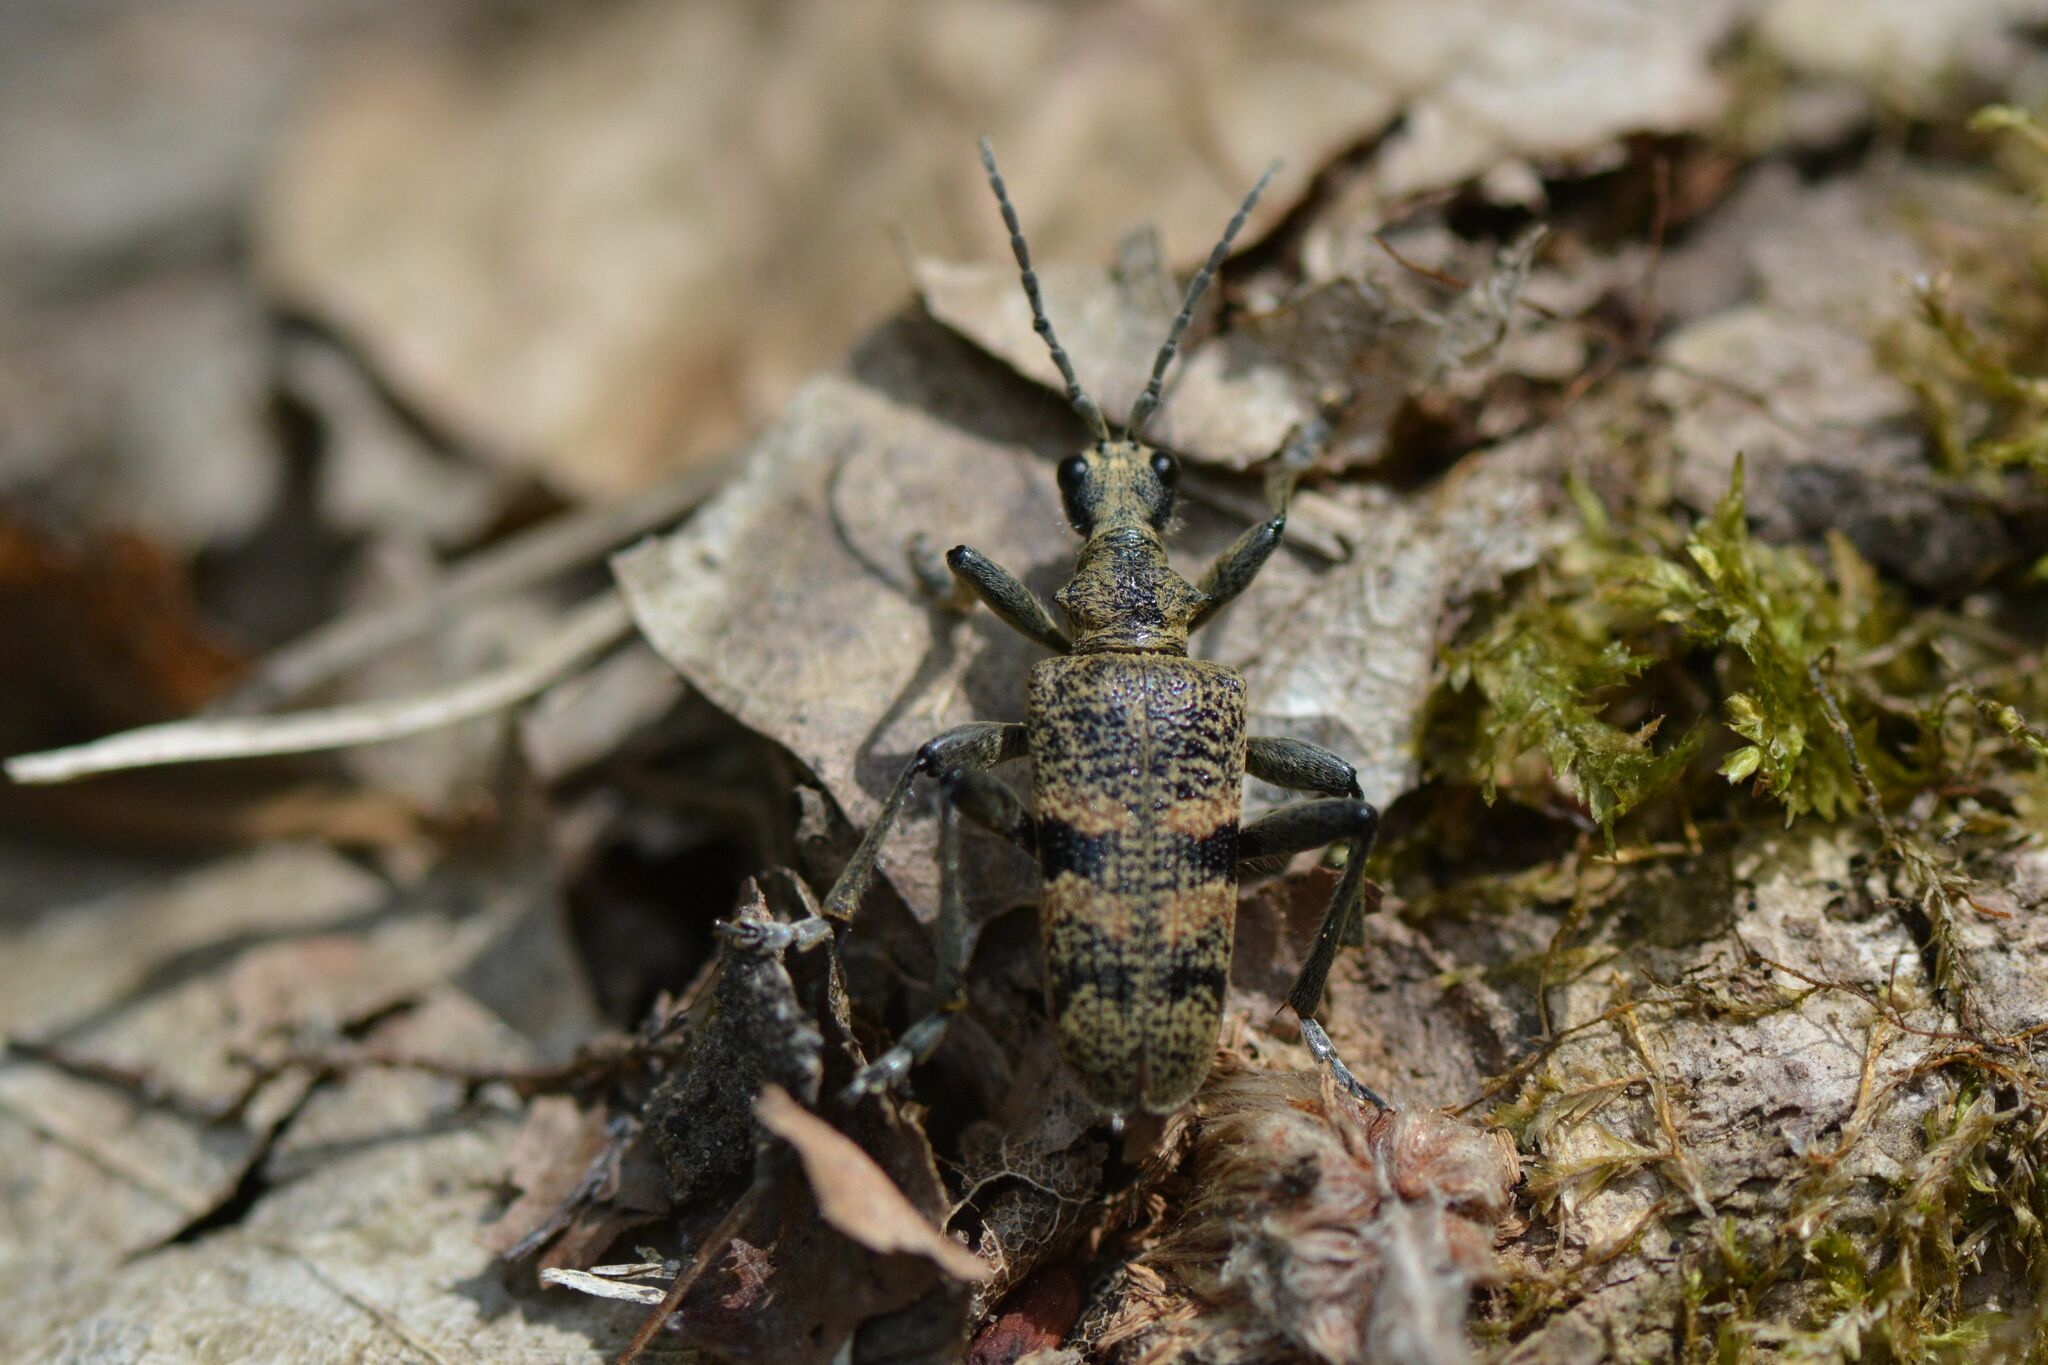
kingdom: Animalia
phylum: Arthropoda
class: Insecta
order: Coleoptera
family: Cerambycidae
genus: Rhagium
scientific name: Rhagium mordax
